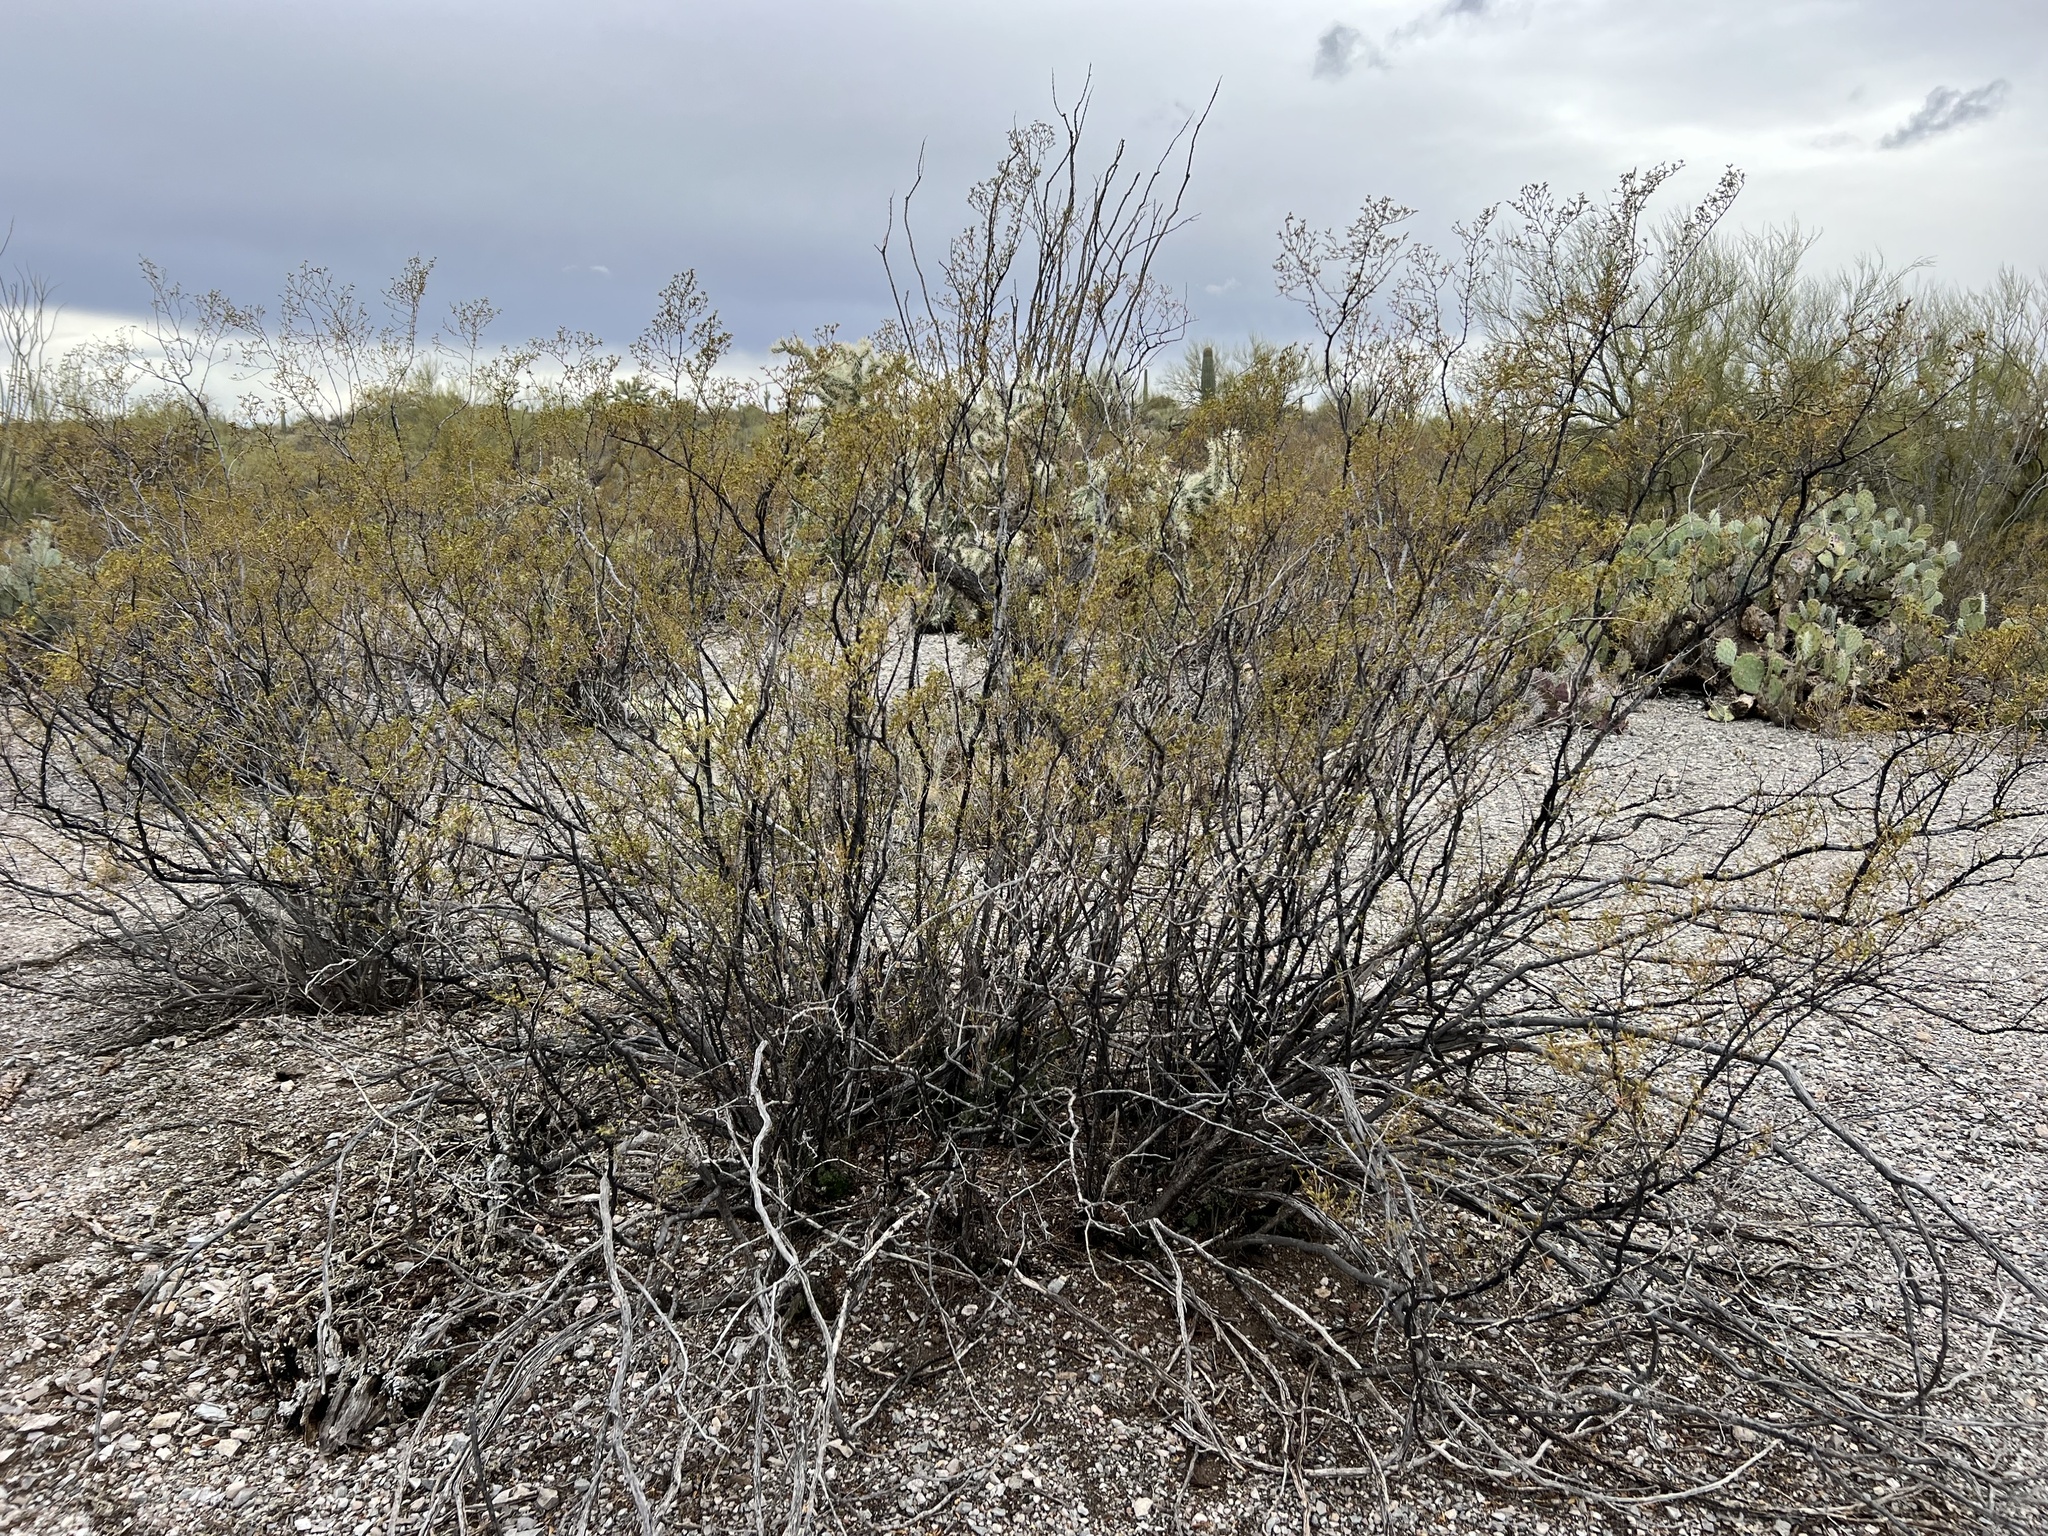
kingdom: Plantae
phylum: Tracheophyta
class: Magnoliopsida
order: Zygophyllales
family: Zygophyllaceae
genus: Larrea
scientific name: Larrea tridentata
